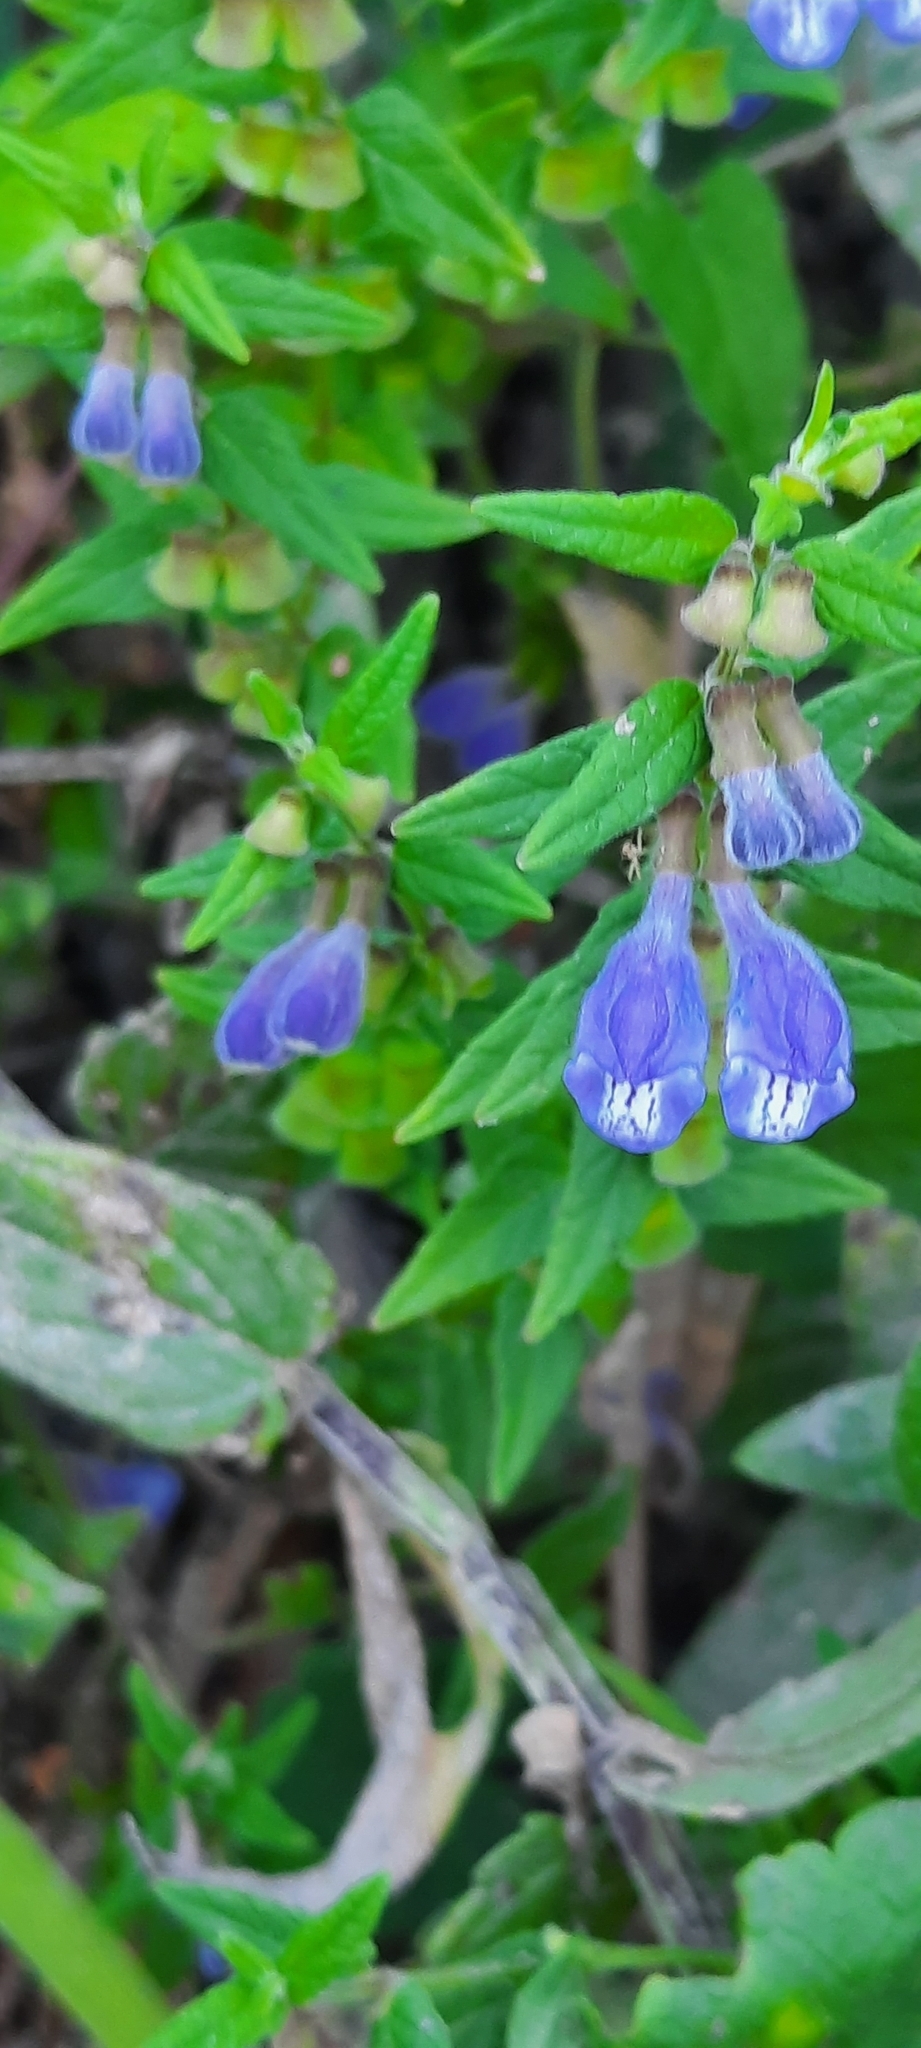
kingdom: Plantae
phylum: Tracheophyta
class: Magnoliopsida
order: Lamiales
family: Lamiaceae
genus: Scutellaria
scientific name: Scutellaria galericulata
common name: Skullcap
